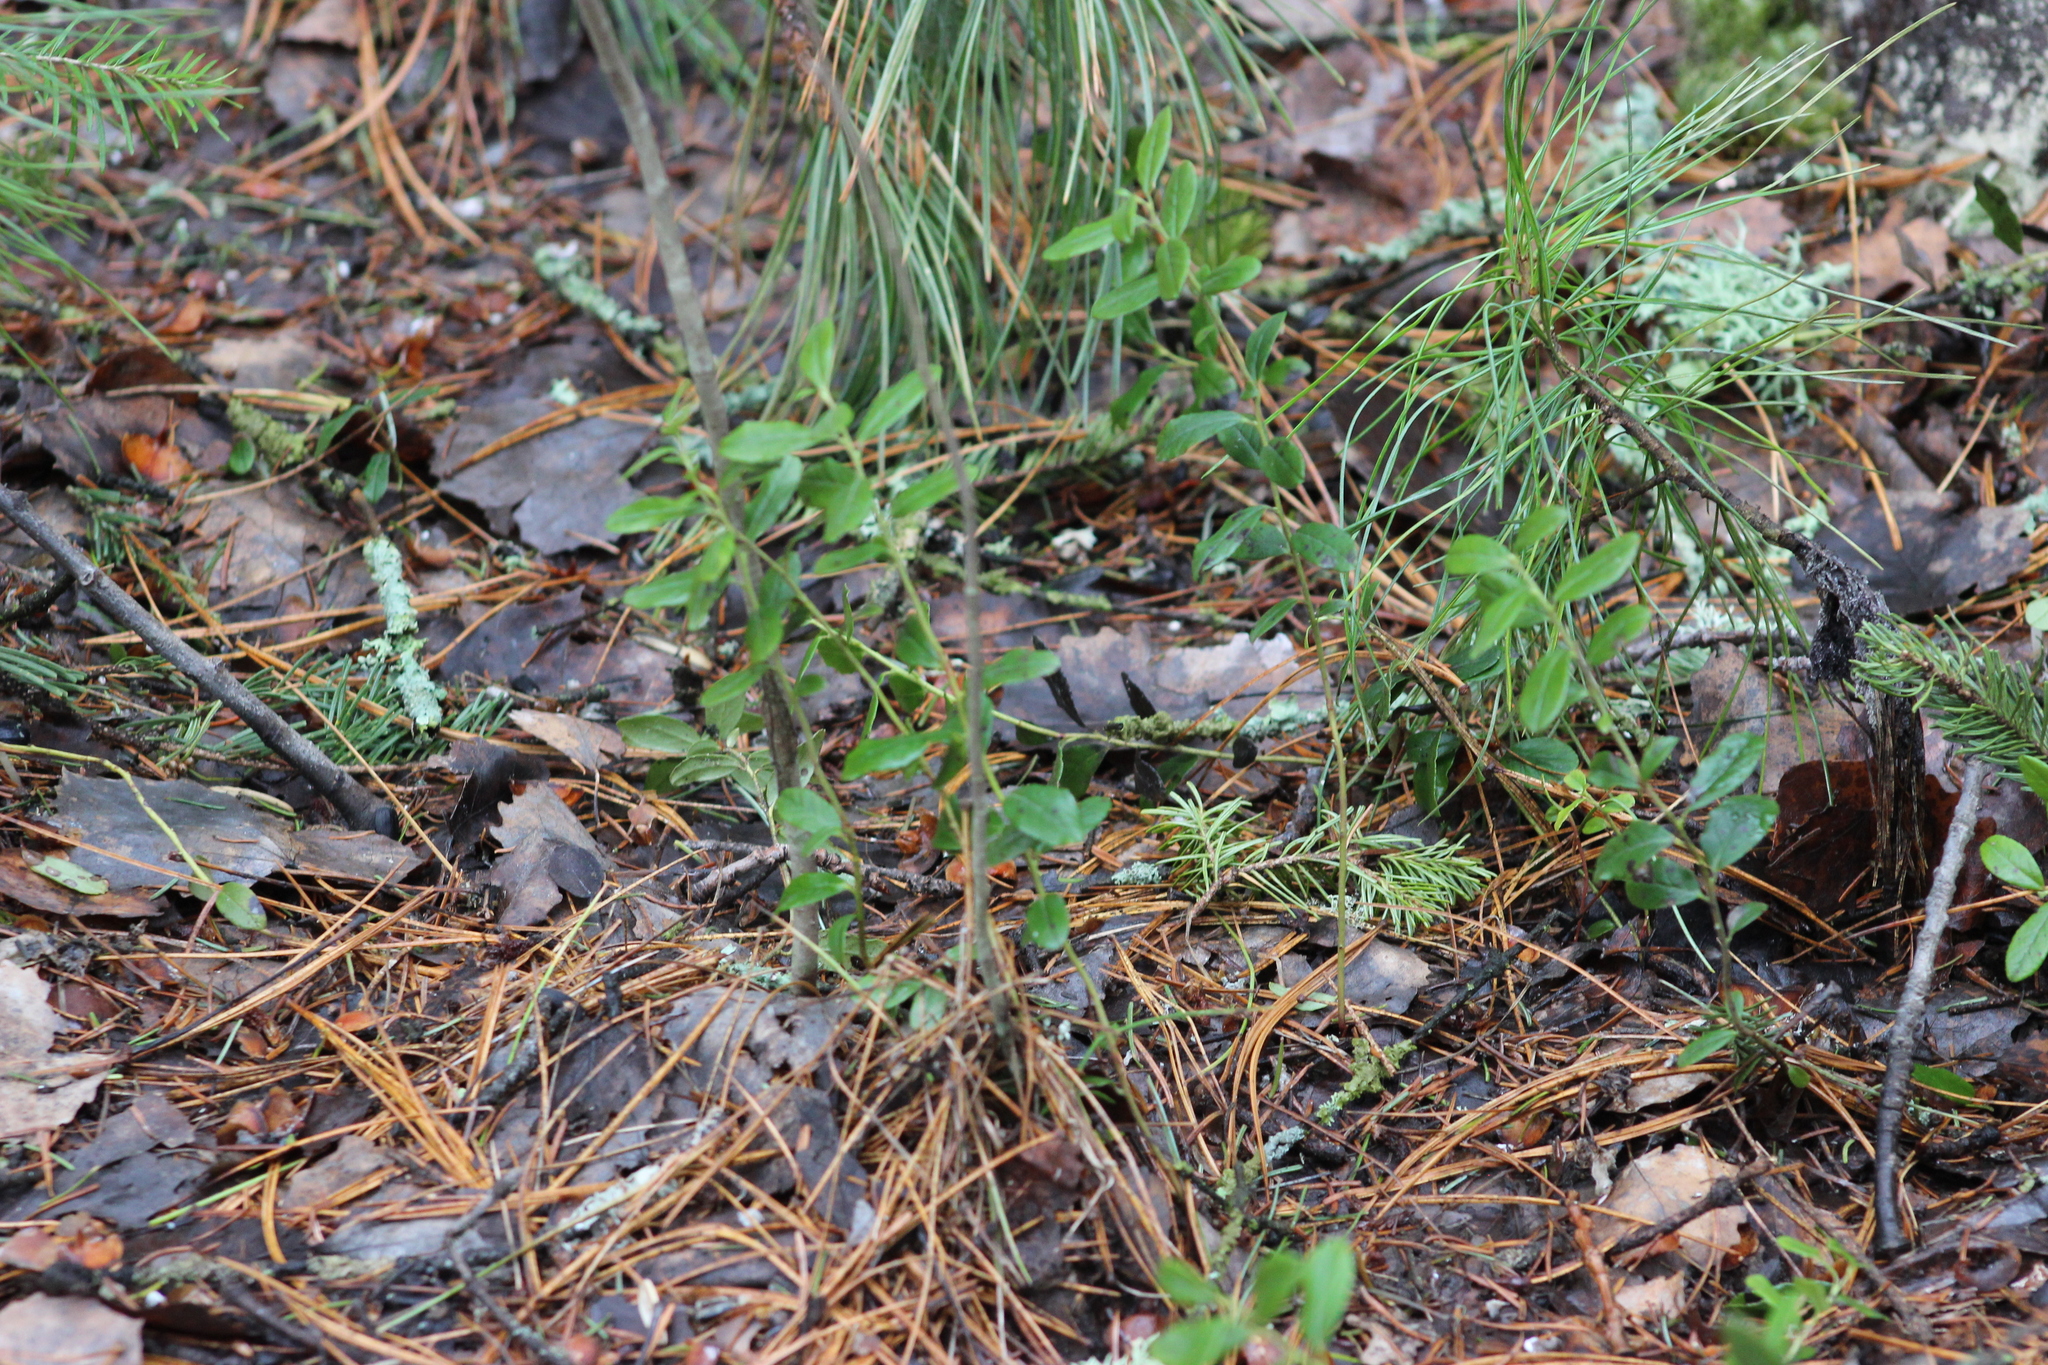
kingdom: Plantae
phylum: Tracheophyta
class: Magnoliopsida
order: Ericales
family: Ericaceae
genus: Vaccinium
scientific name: Vaccinium vitis-idaea
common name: Cowberry
